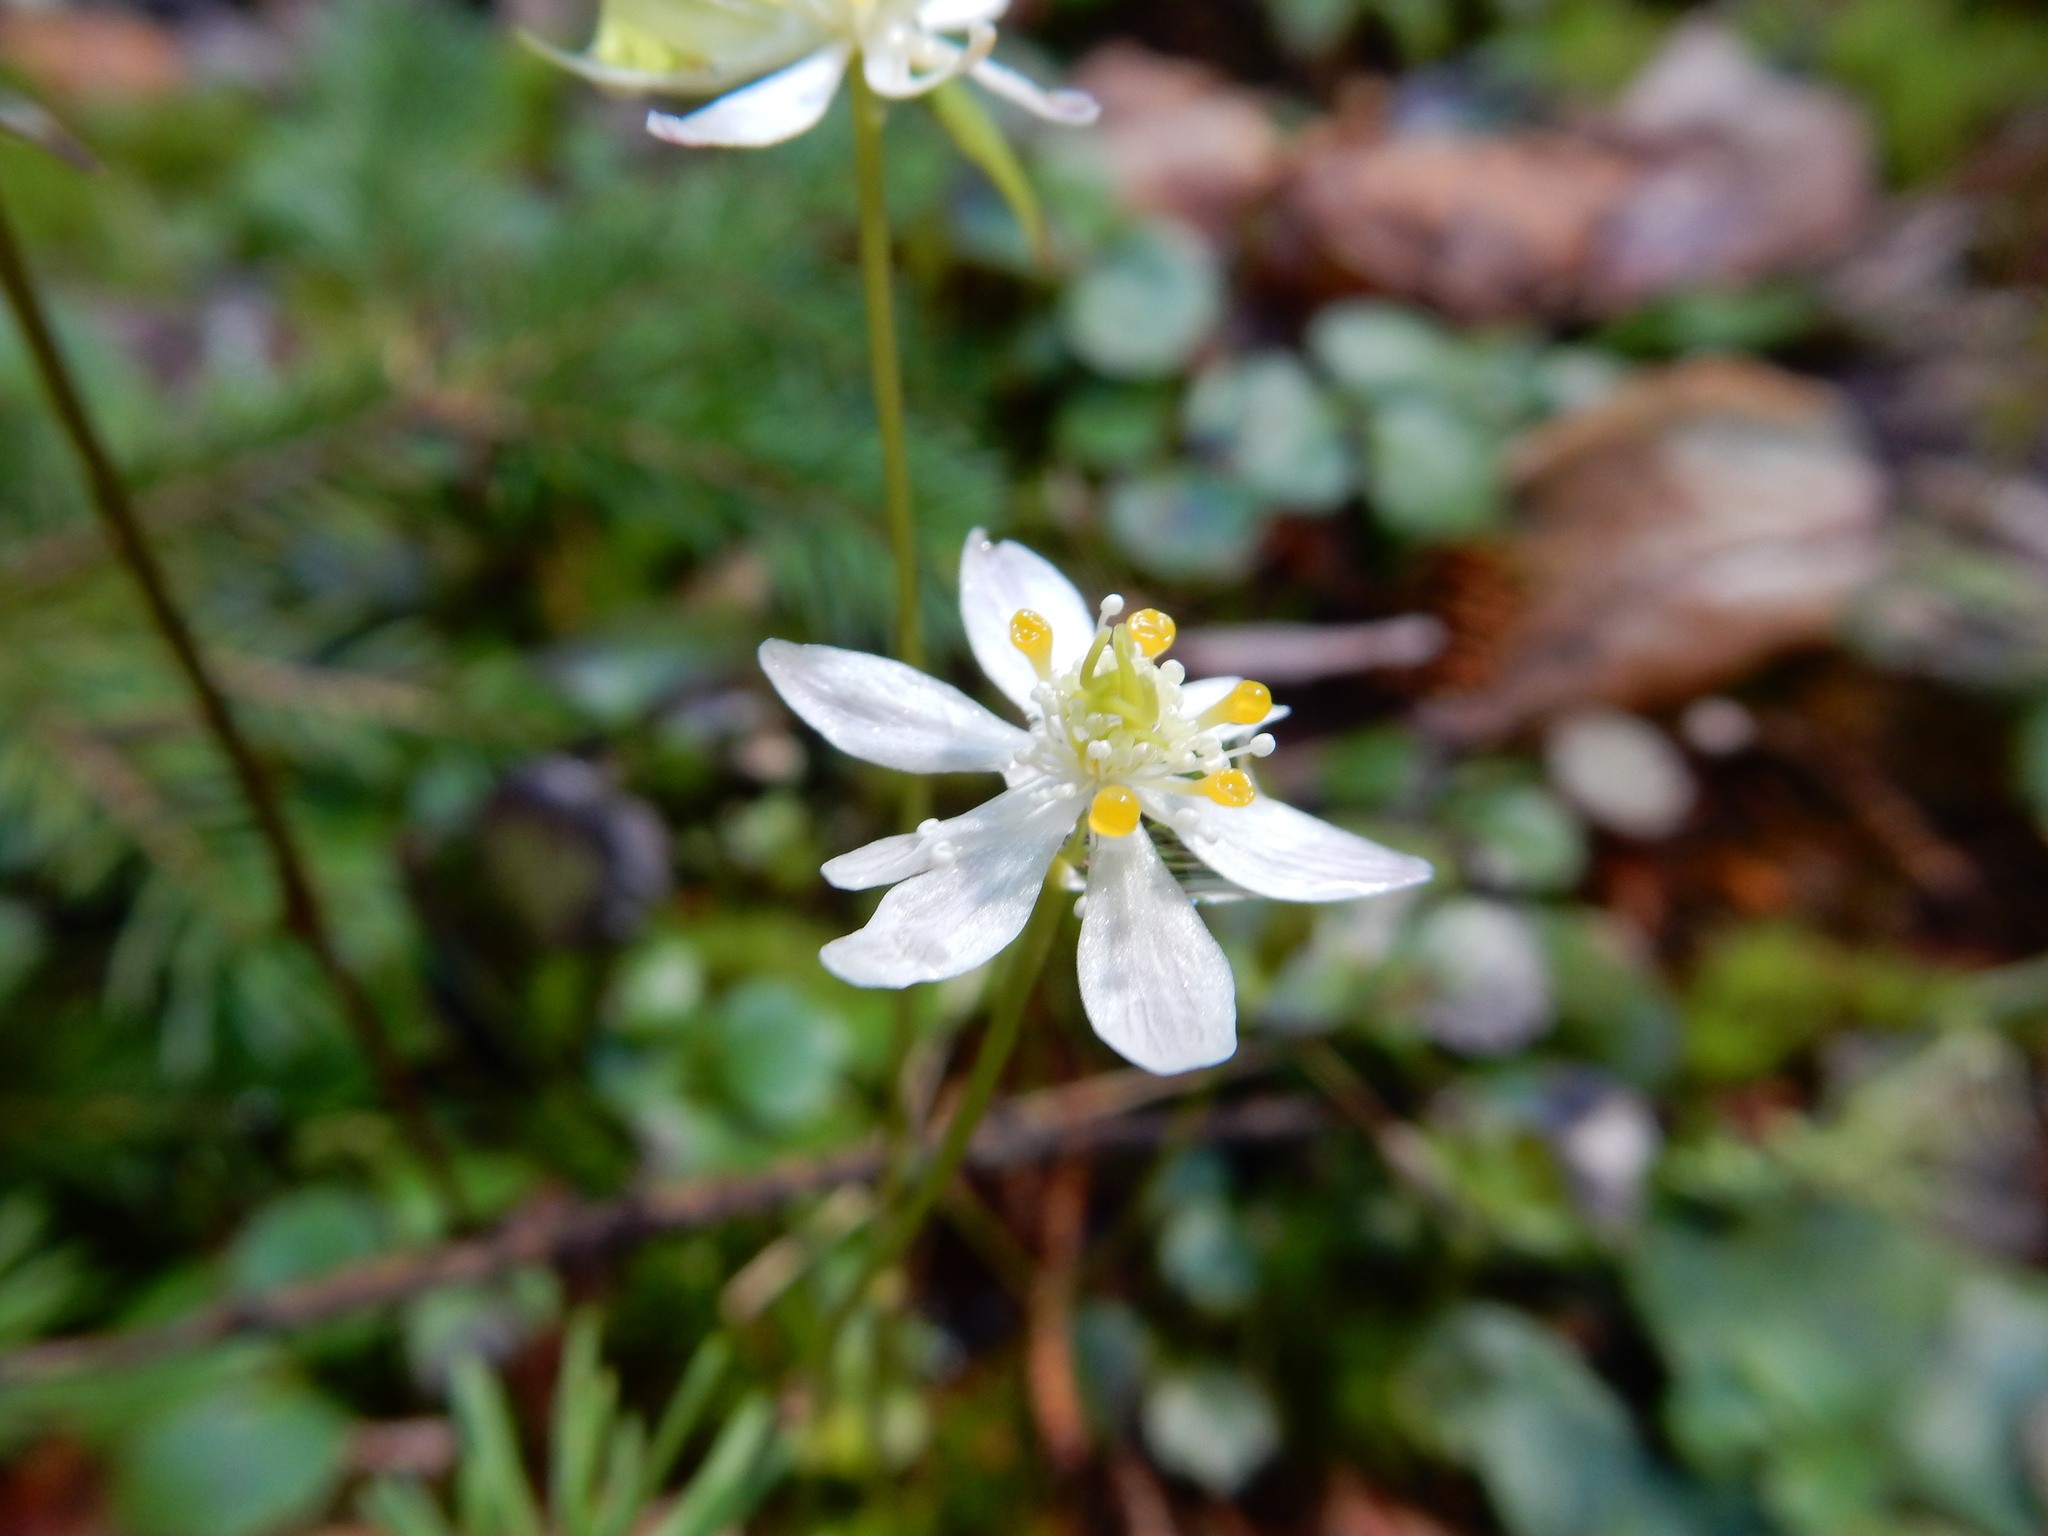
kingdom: Plantae
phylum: Tracheophyta
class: Magnoliopsida
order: Ranunculales
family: Ranunculaceae
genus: Coptis
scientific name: Coptis trifolia
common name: Canker-root
